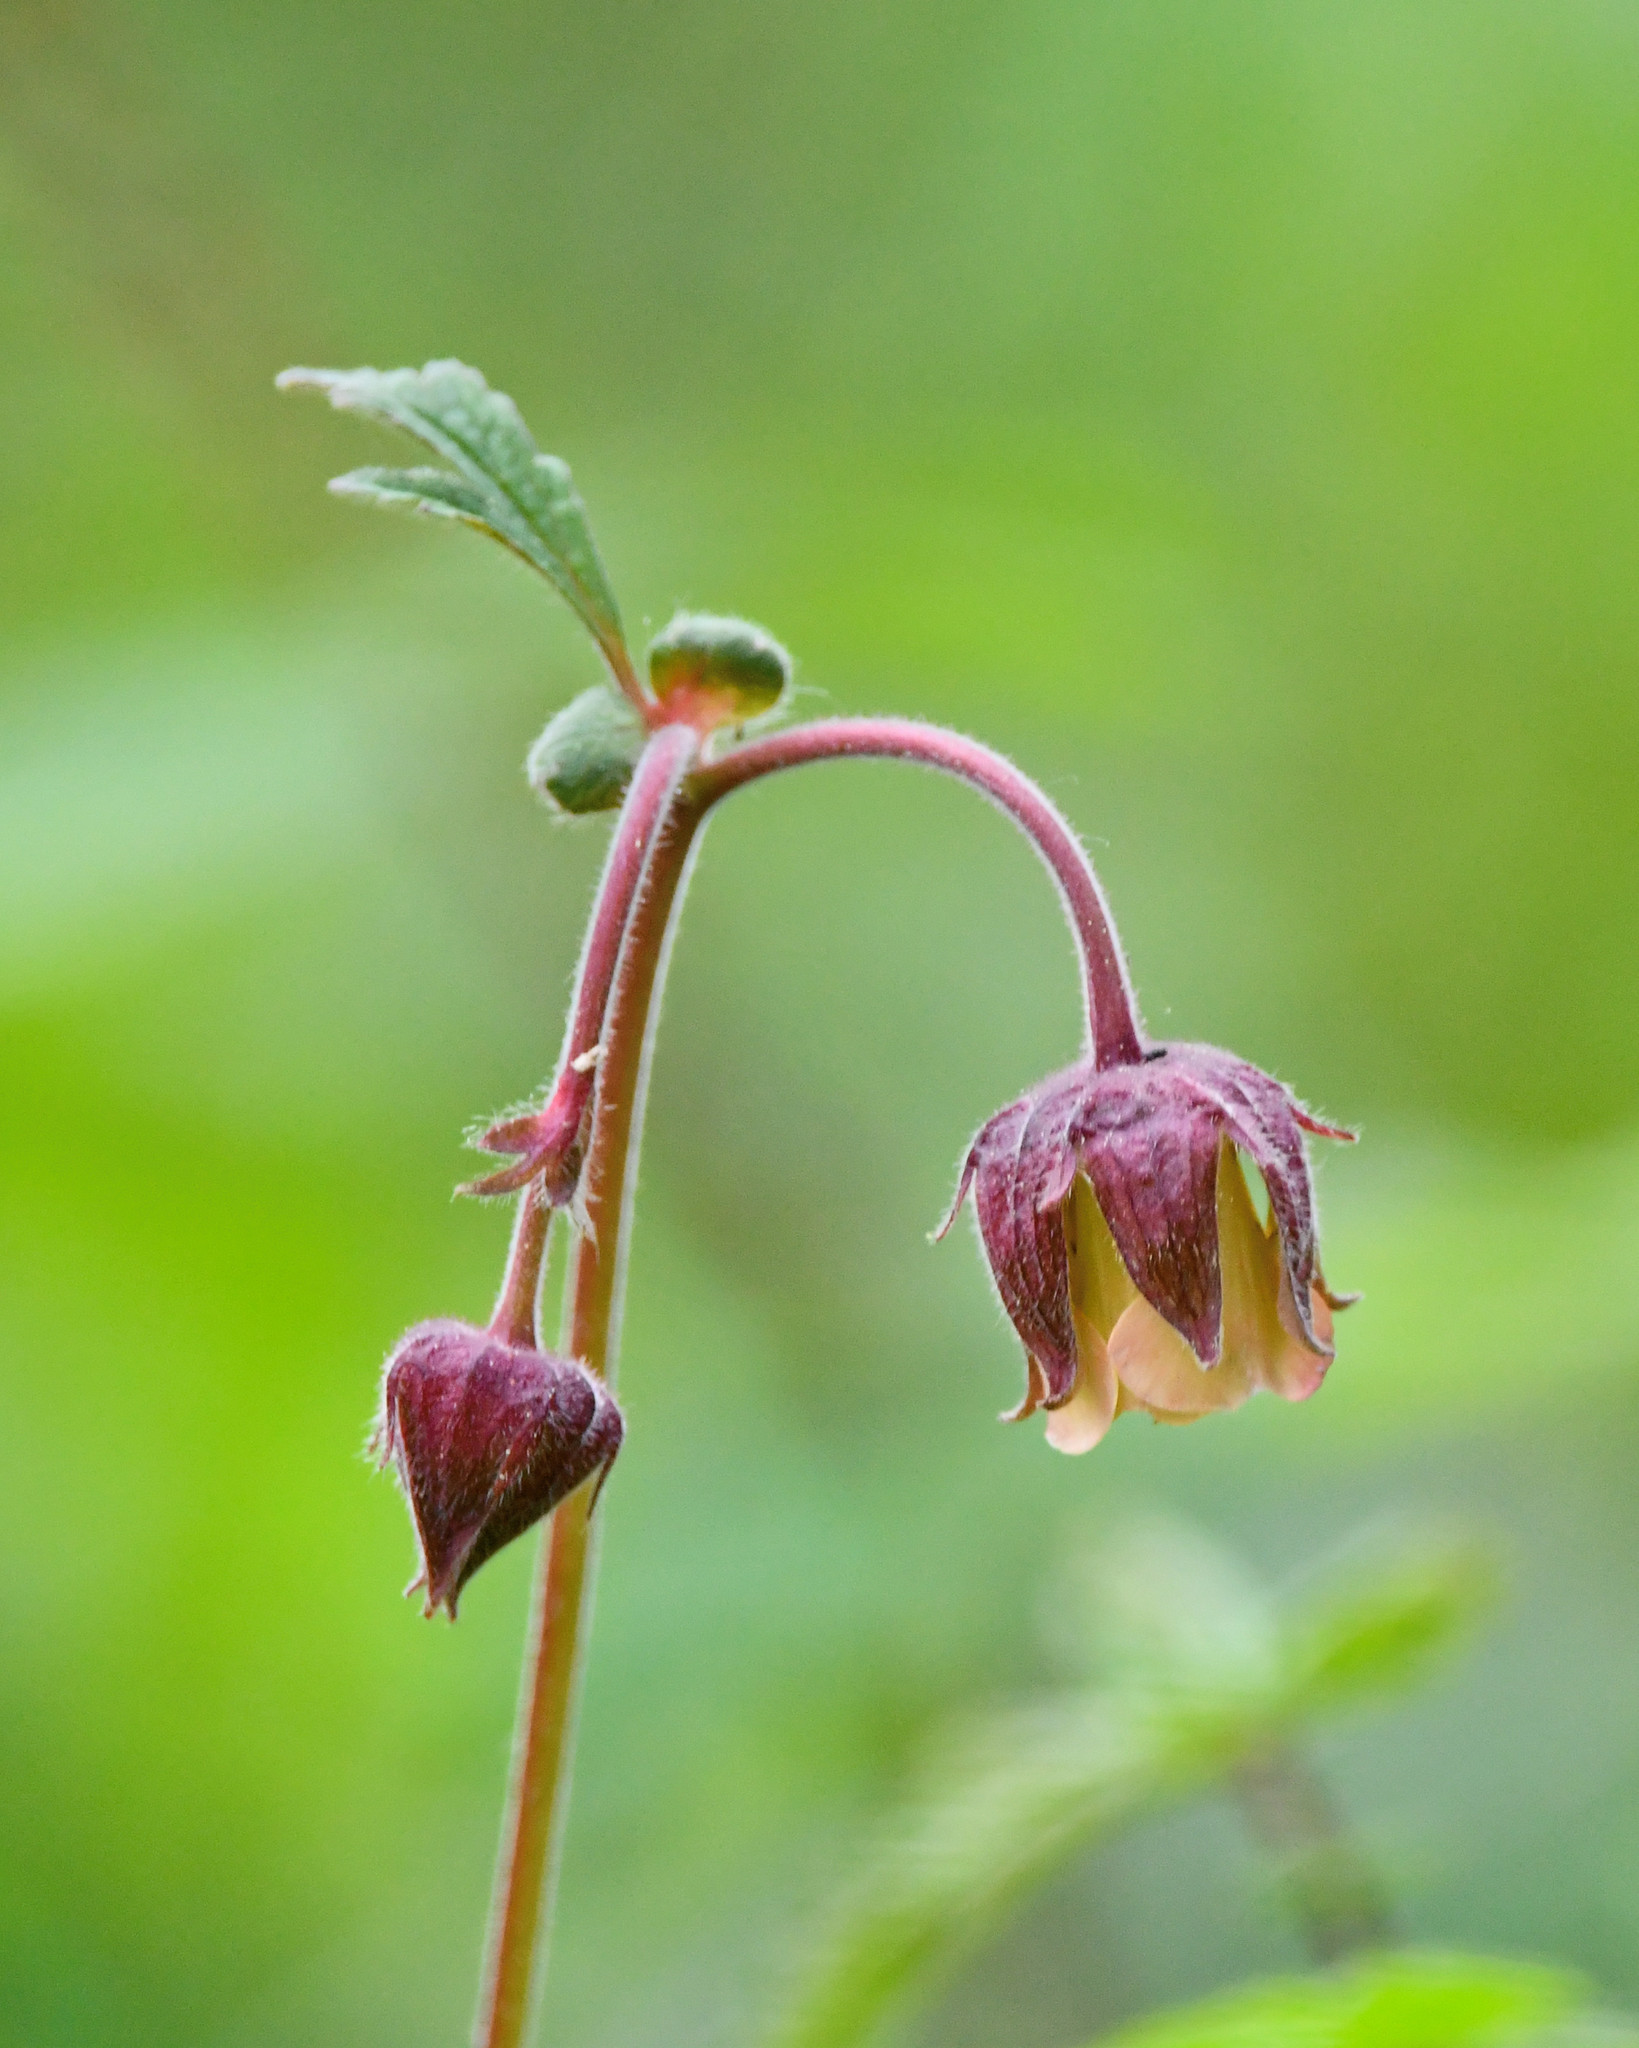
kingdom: Plantae
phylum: Tracheophyta
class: Magnoliopsida
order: Rosales
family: Rosaceae
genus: Geum
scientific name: Geum rivale
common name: Water avens
